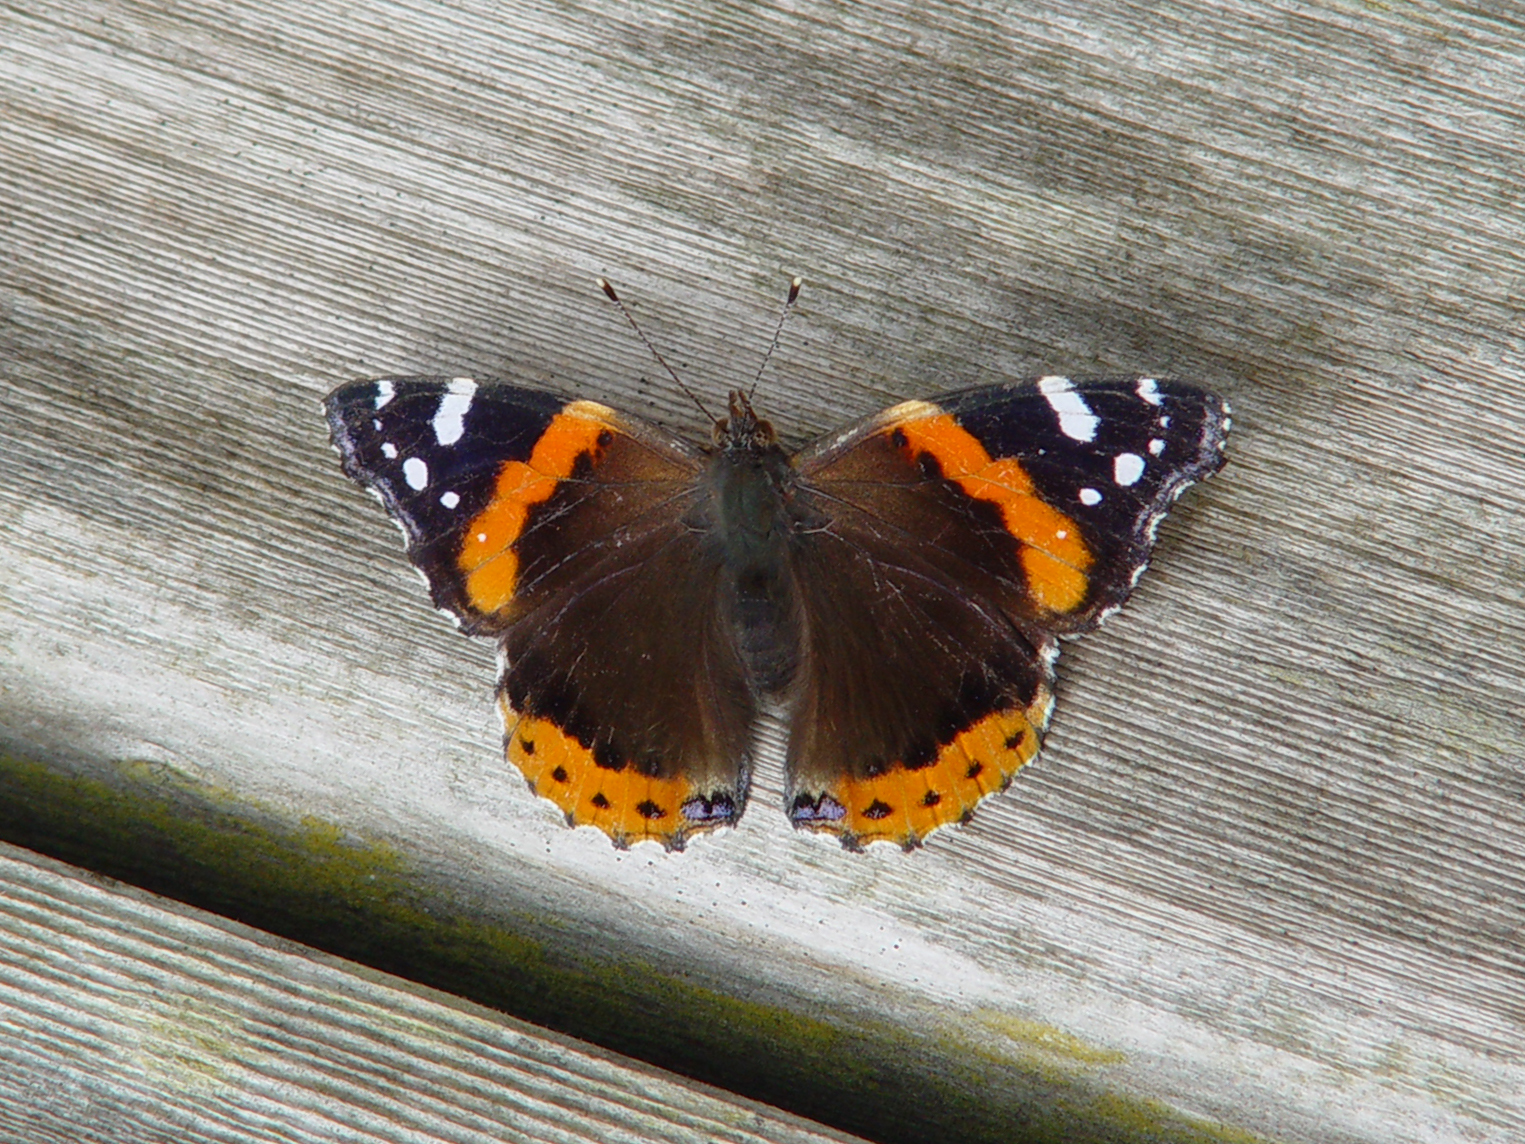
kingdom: Animalia
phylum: Arthropoda
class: Insecta
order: Lepidoptera
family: Nymphalidae
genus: Vanessa
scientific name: Vanessa atalanta
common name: Red admiral
